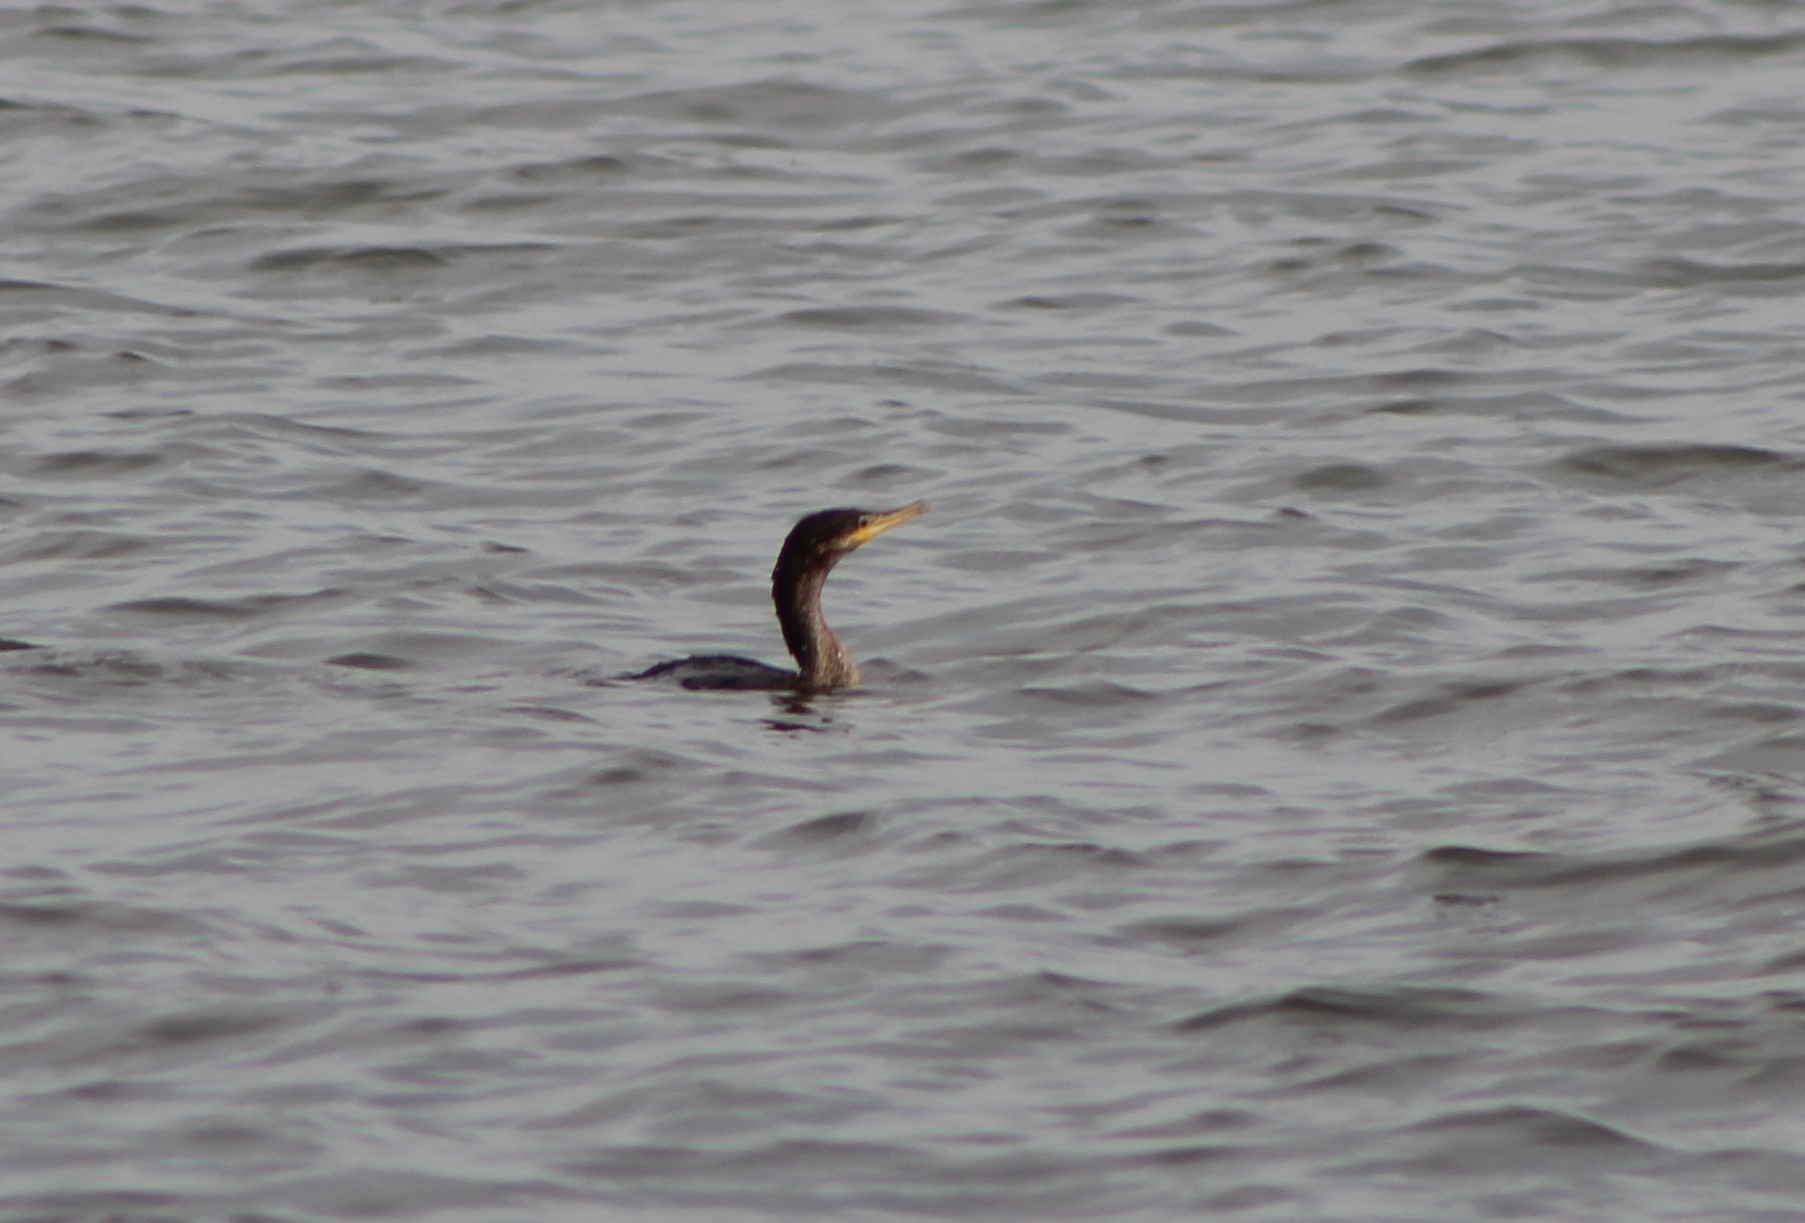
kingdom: Animalia
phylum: Chordata
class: Aves
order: Suliformes
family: Phalacrocoracidae
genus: Phalacrocorax
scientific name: Phalacrocorax auritus
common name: Double-crested cormorant
